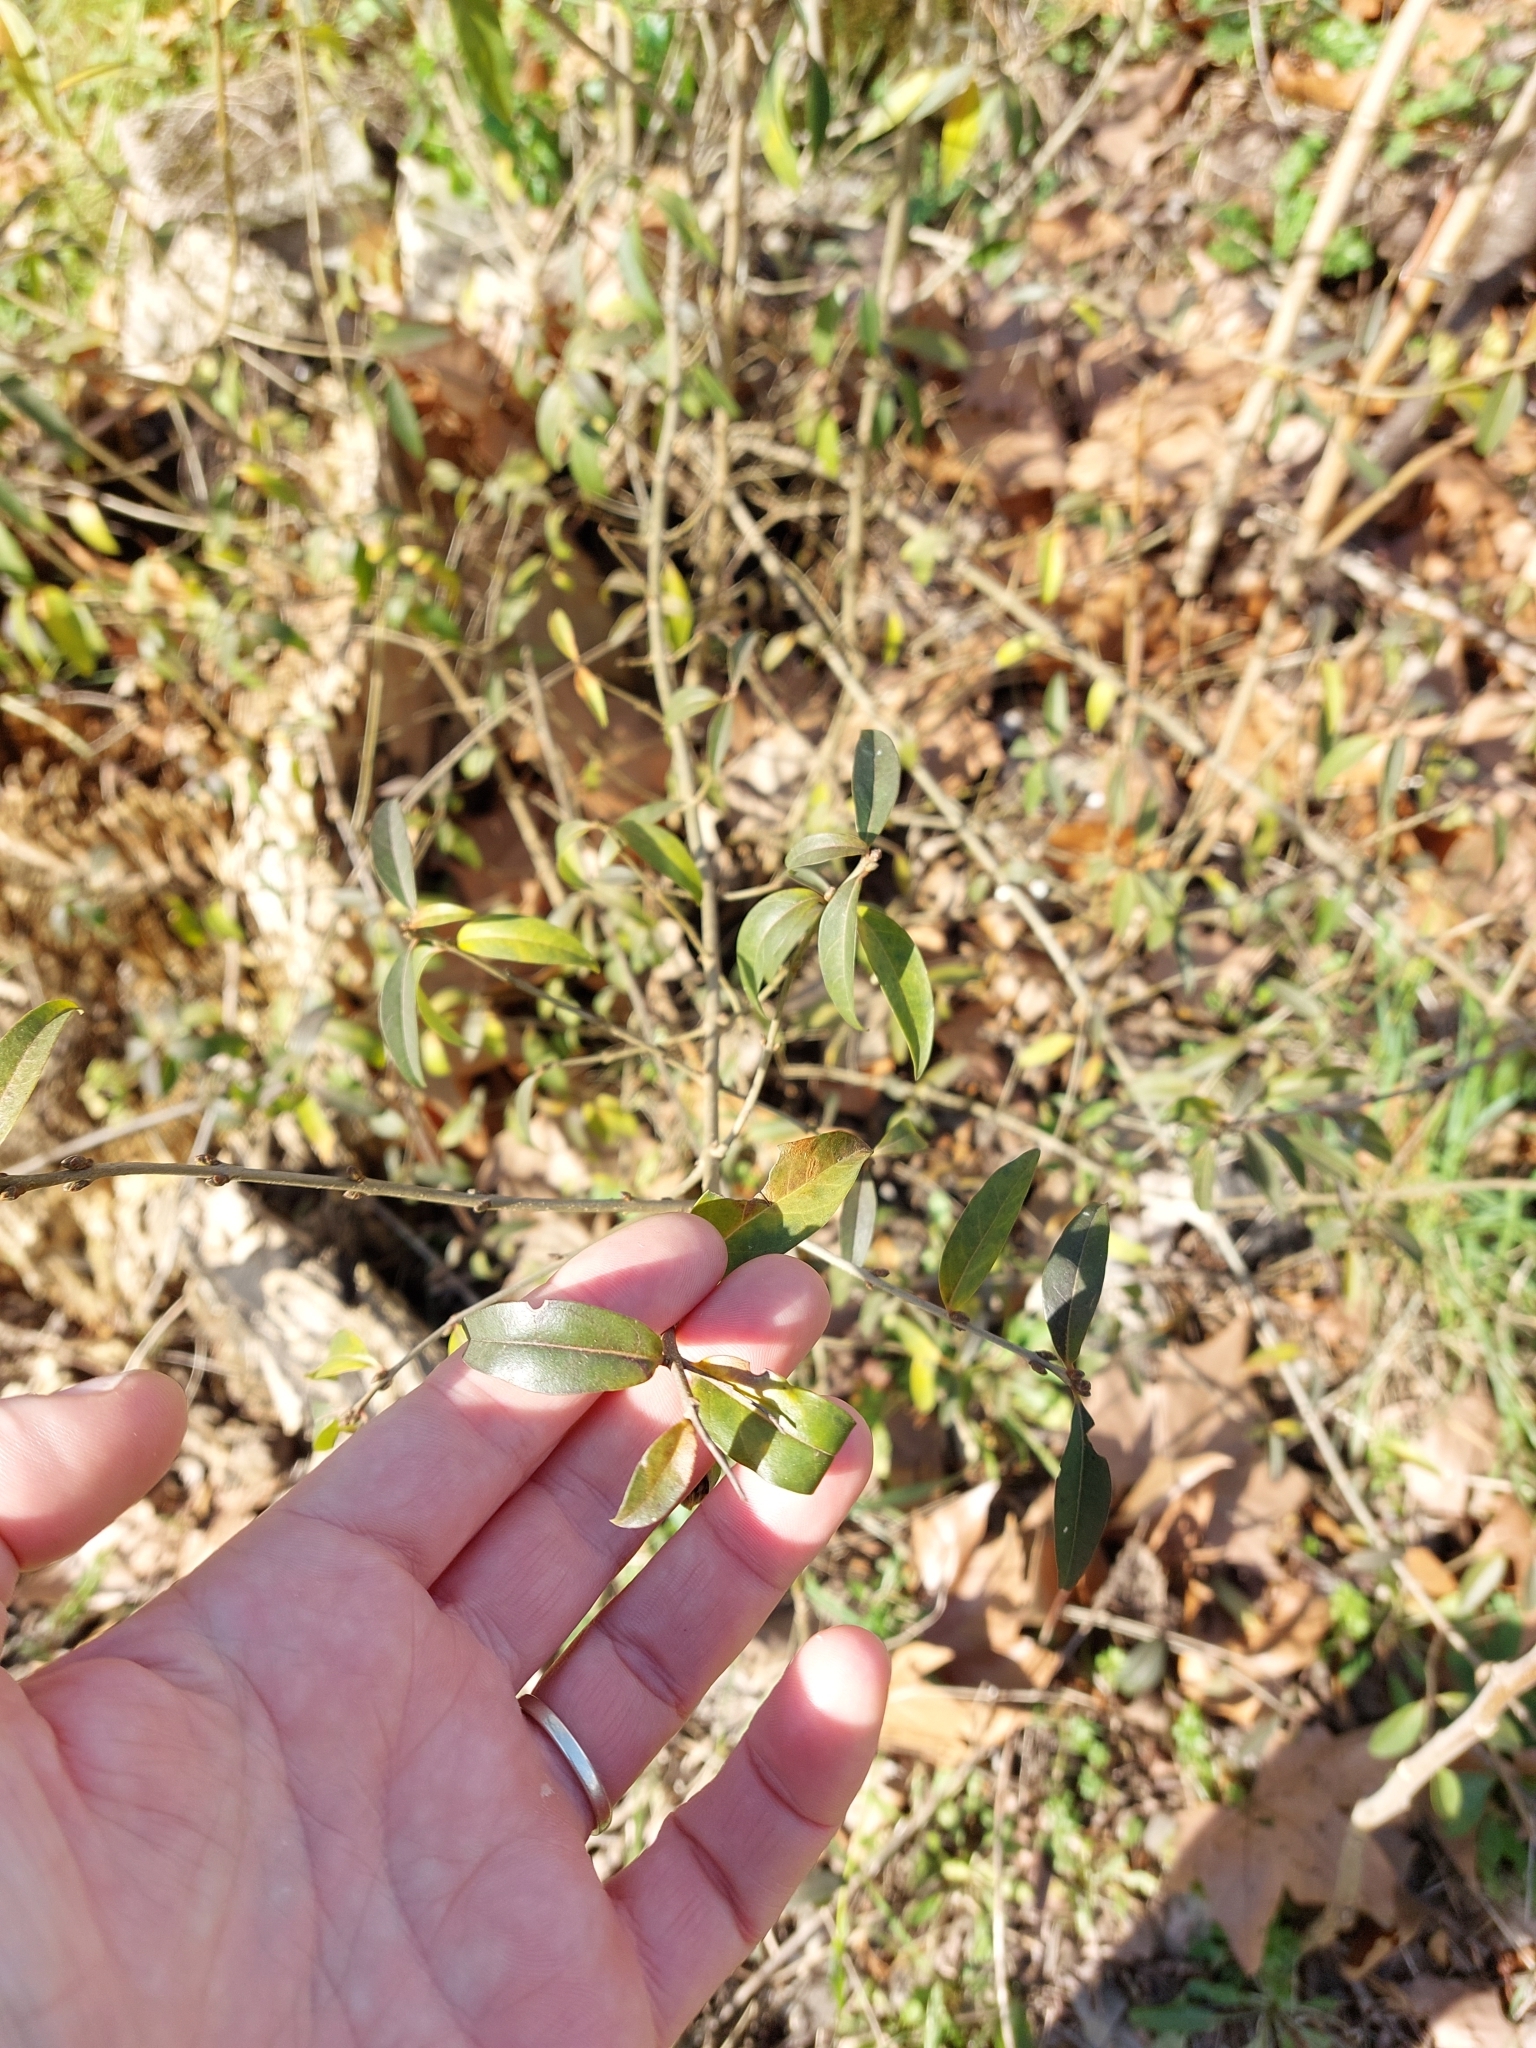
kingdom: Plantae
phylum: Tracheophyta
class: Magnoliopsida
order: Lamiales
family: Oleaceae
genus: Ligustrum
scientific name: Ligustrum vulgare
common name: Wild privet
